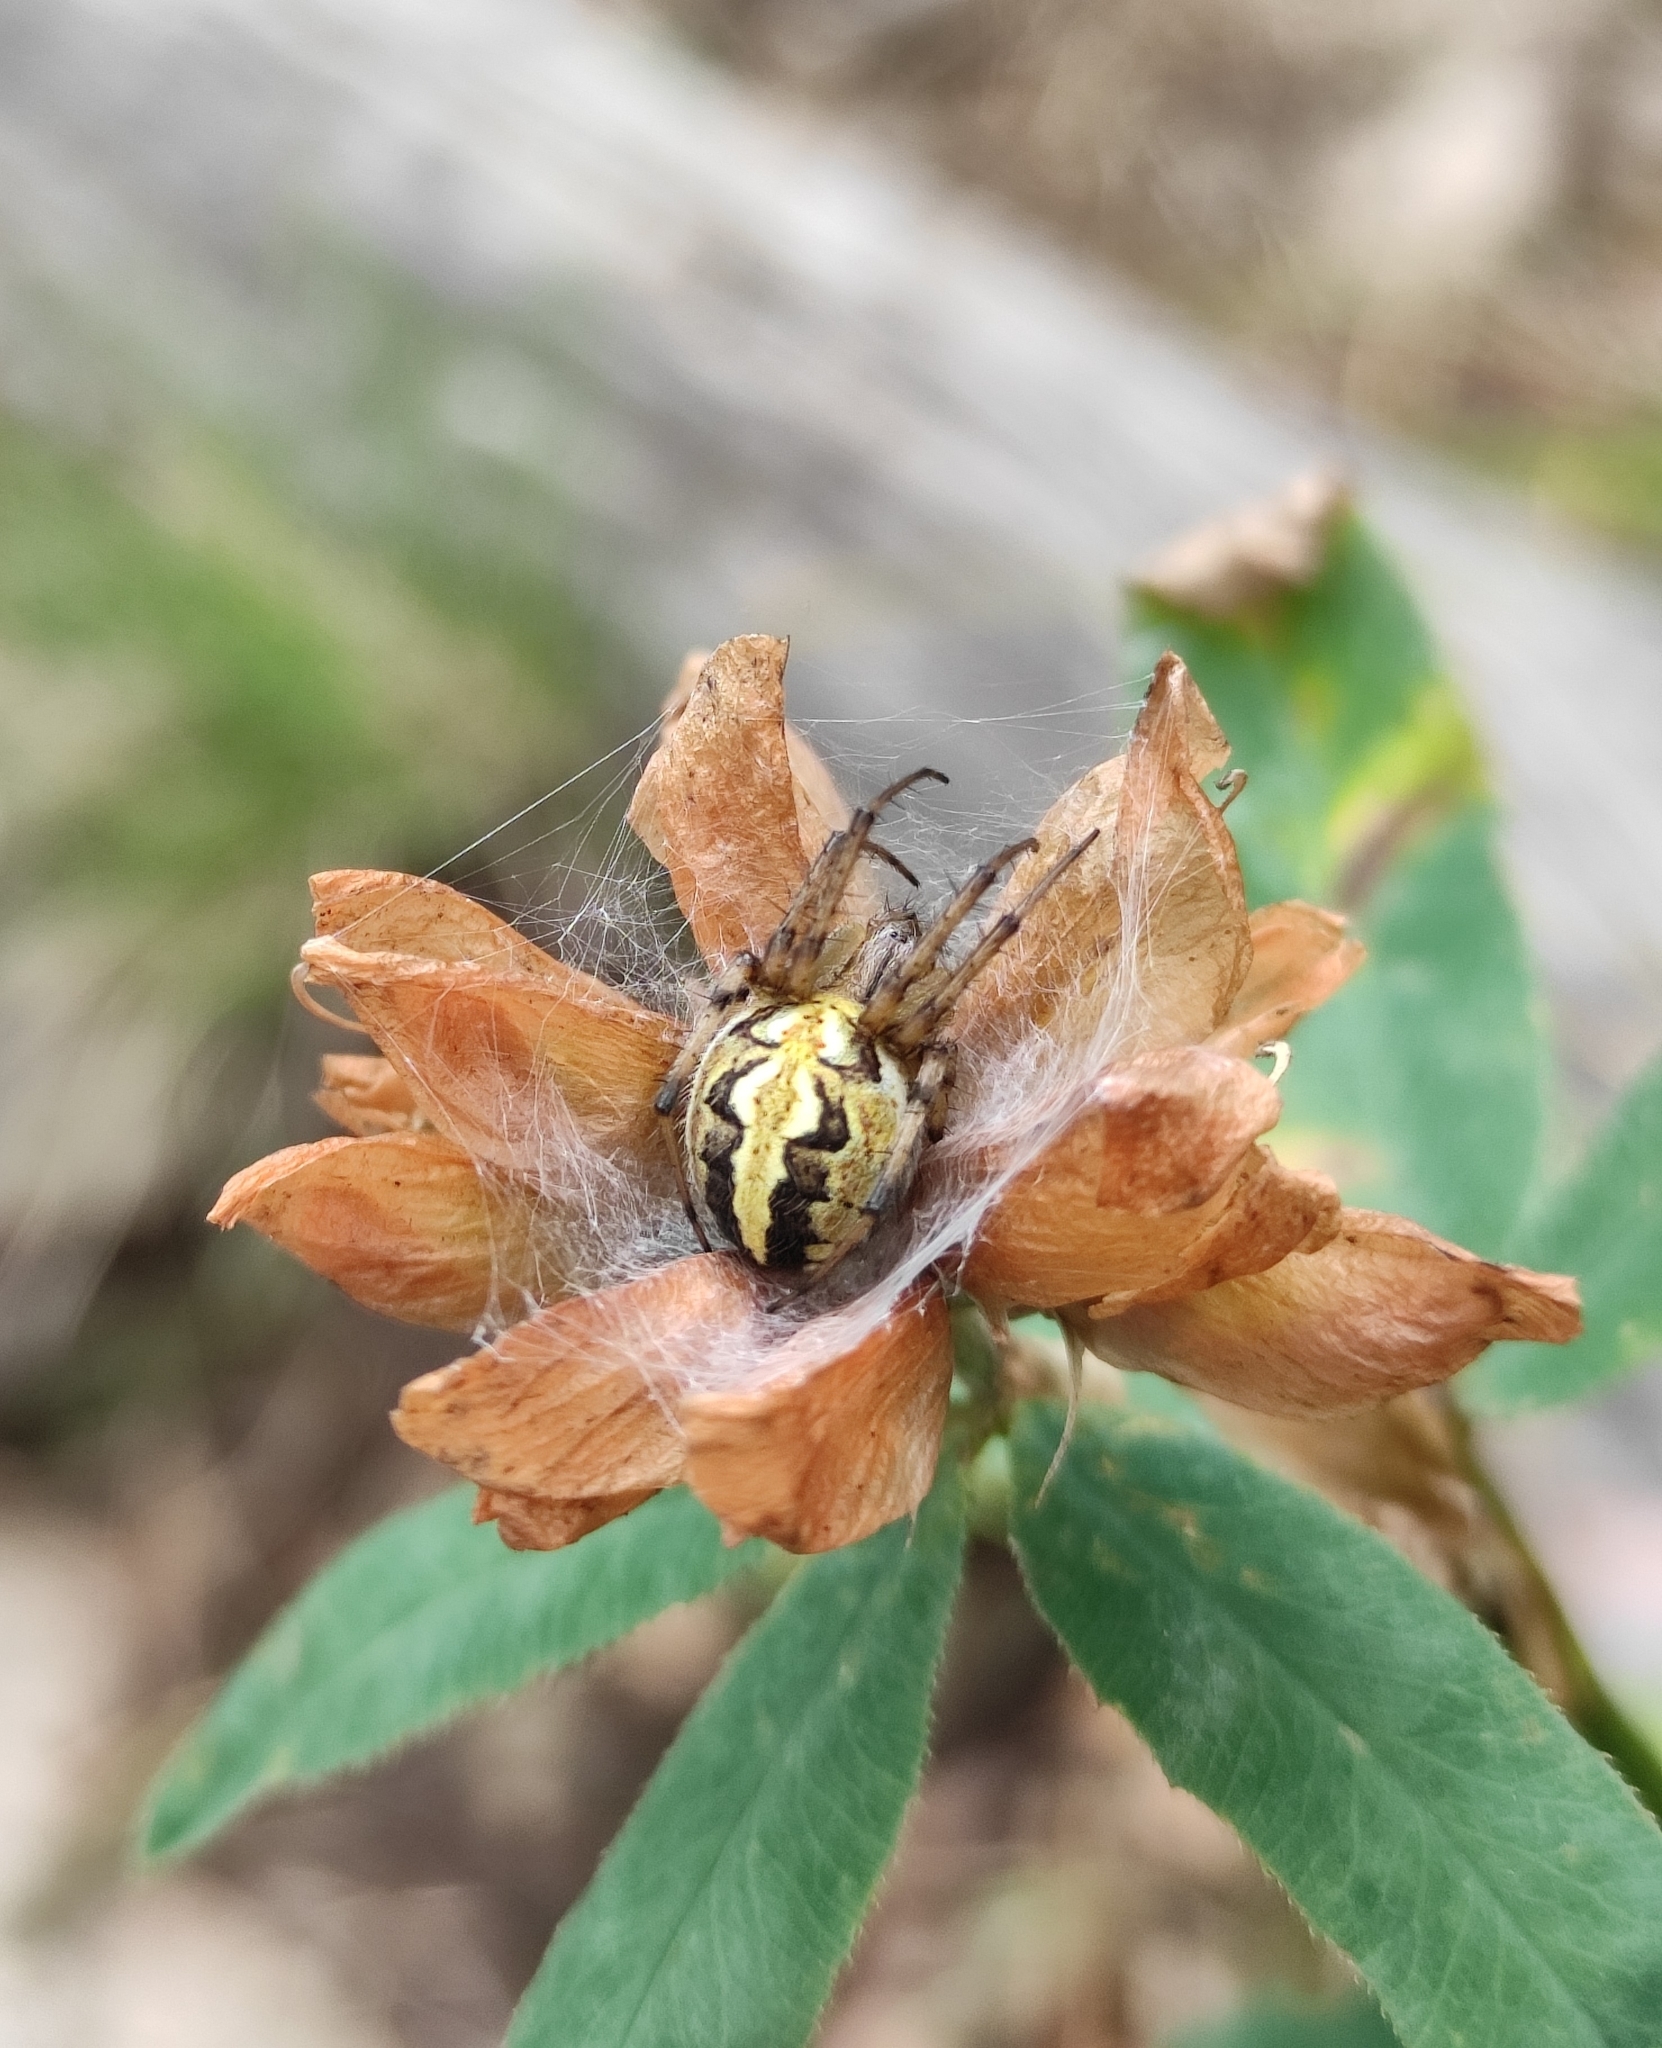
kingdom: Animalia
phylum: Arthropoda
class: Arachnida
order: Araneae
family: Araneidae
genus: Neoscona
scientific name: Neoscona adianta
